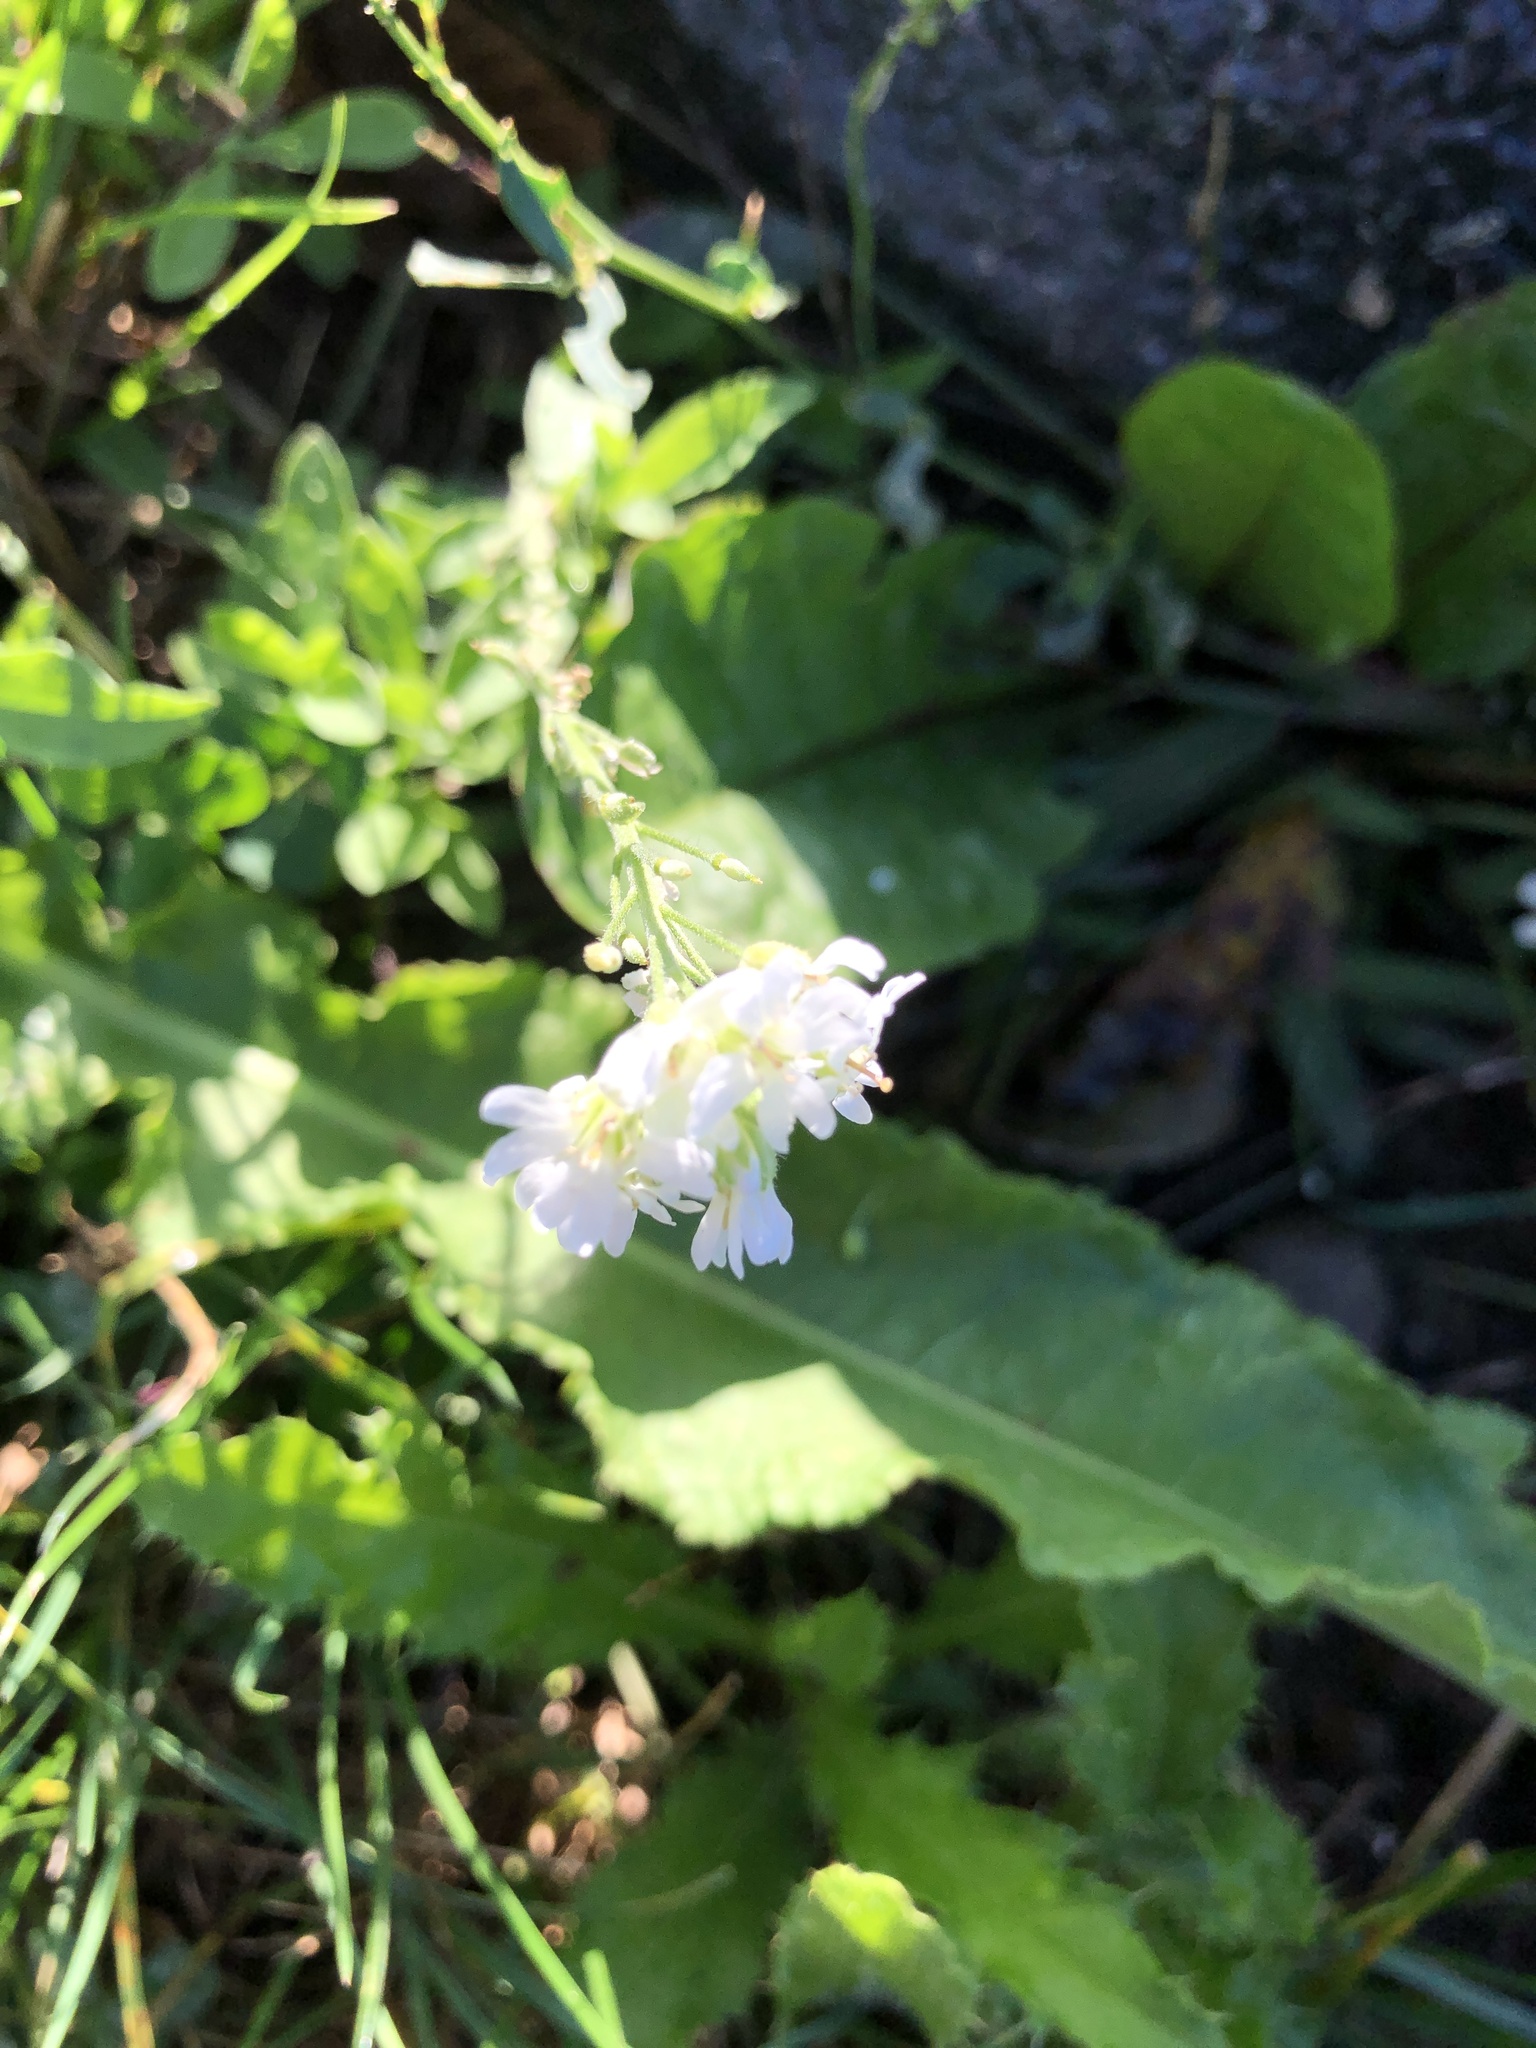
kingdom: Plantae
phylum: Tracheophyta
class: Magnoliopsida
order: Brassicales
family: Brassicaceae
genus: Berteroa
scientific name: Berteroa incana
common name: Hoary alison
